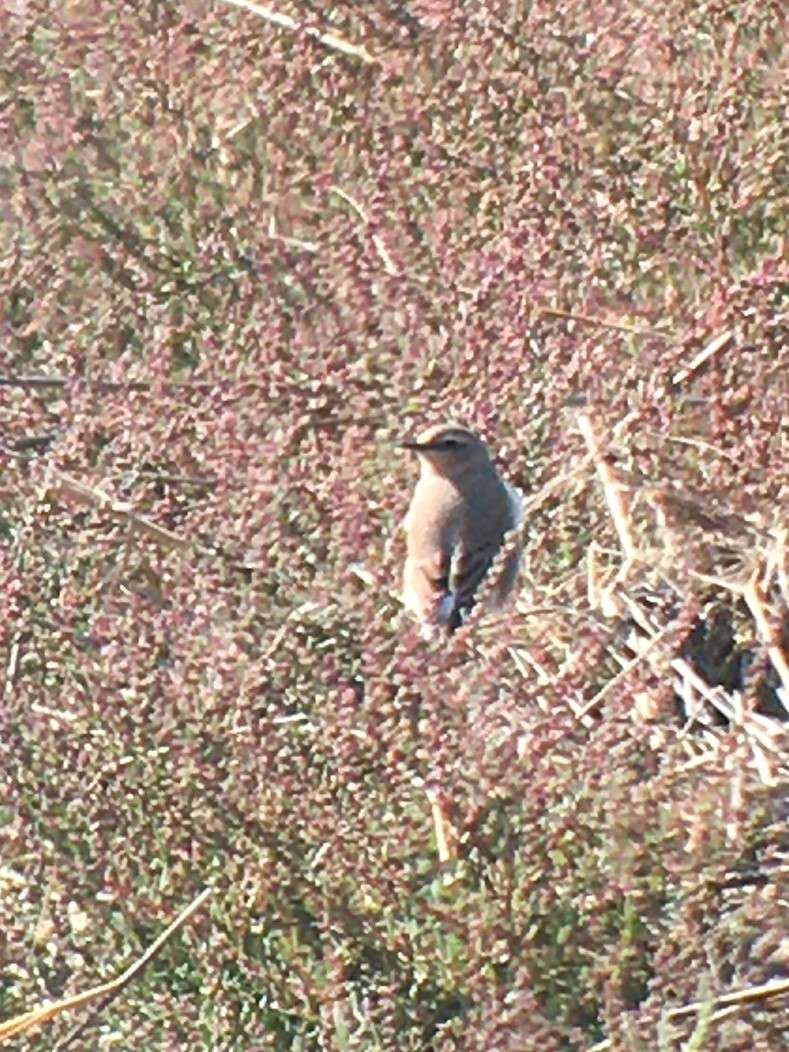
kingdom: Animalia
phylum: Chordata
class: Aves
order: Passeriformes
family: Muscicapidae
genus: Oenanthe
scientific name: Oenanthe oenanthe
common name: Northern wheatear
